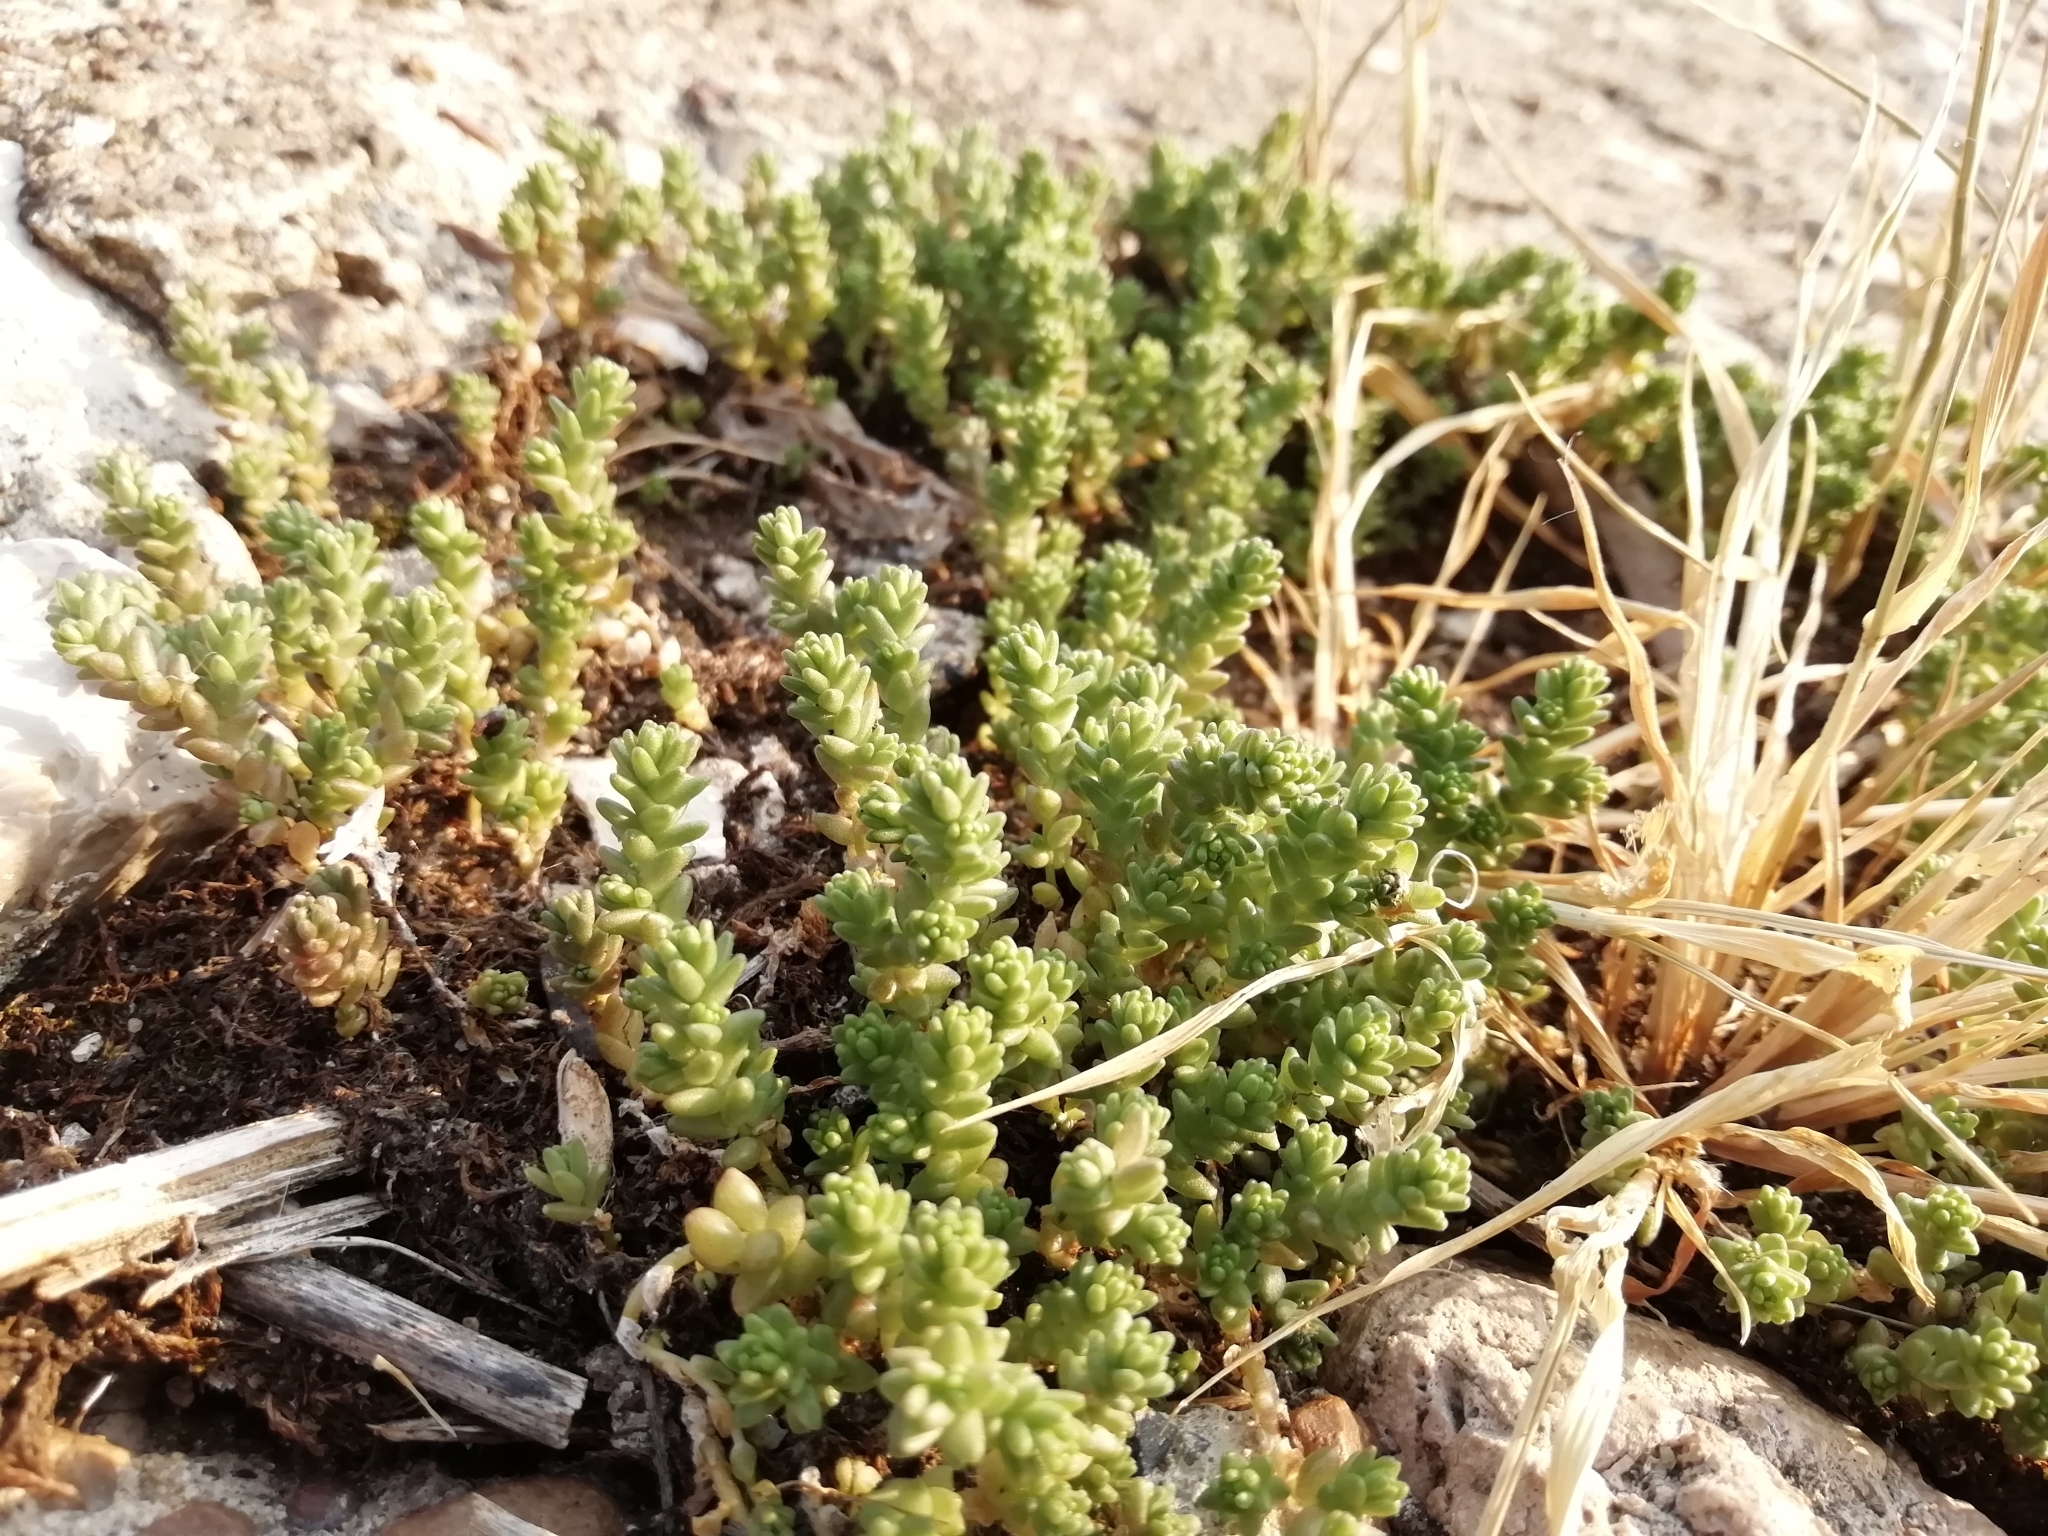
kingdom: Plantae
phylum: Tracheophyta
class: Magnoliopsida
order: Saxifragales
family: Crassulaceae
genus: Sedum
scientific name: Sedum acre
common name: Biting stonecrop
